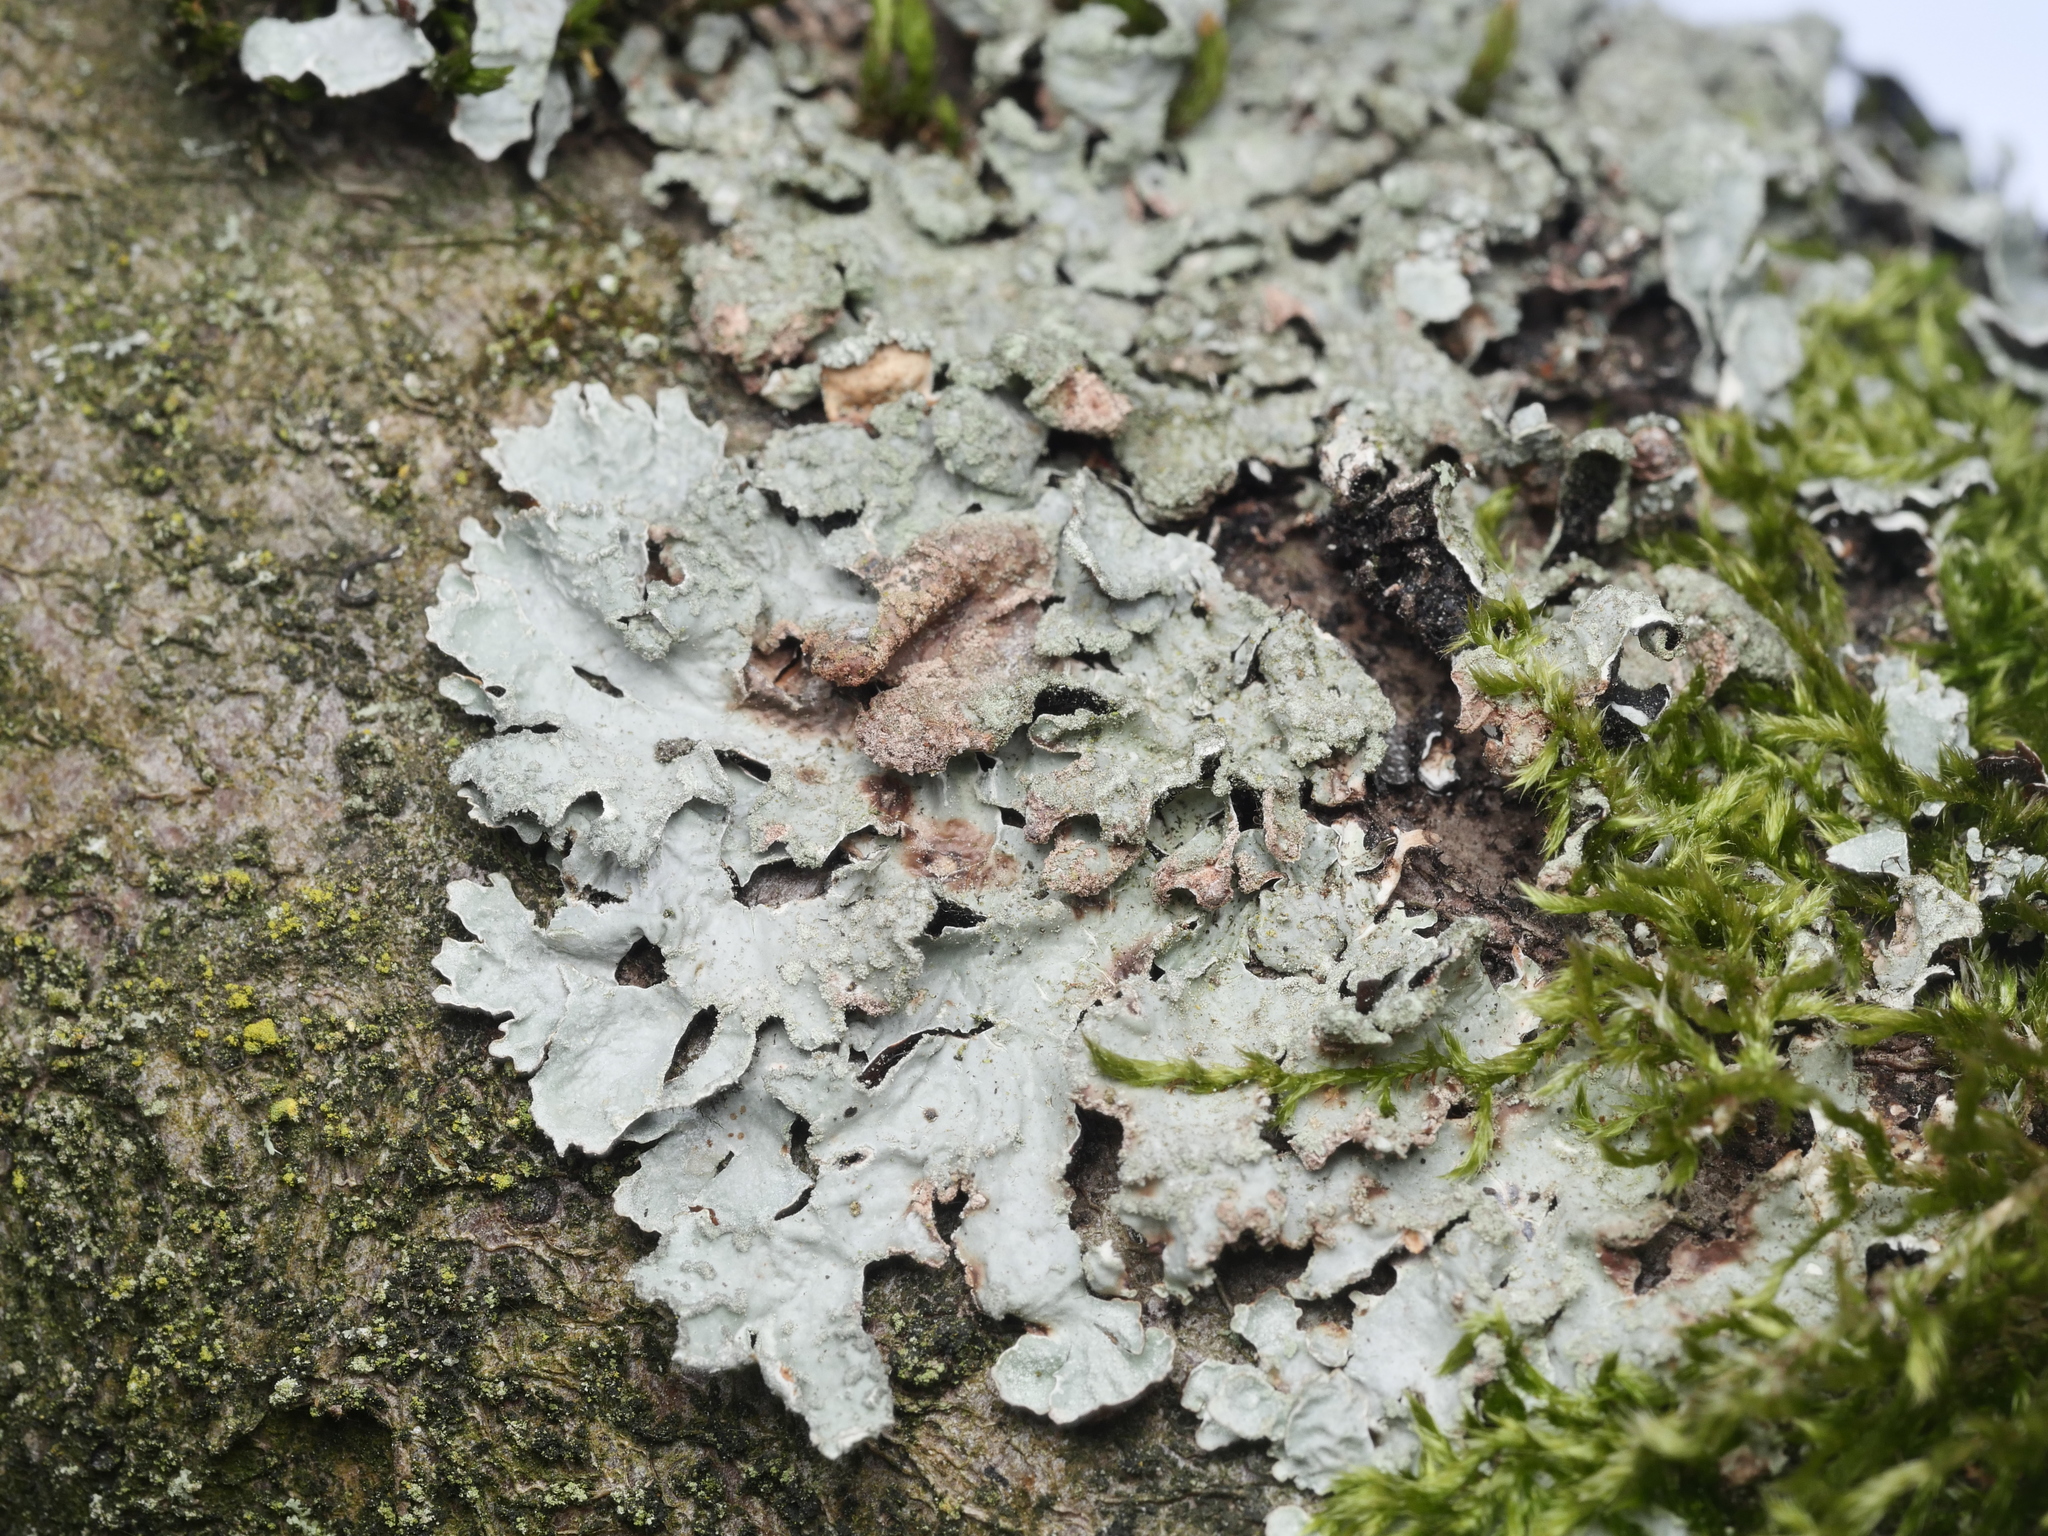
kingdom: Fungi
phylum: Ascomycota
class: Lecanoromycetes
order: Lecanorales
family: Parmeliaceae
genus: Parmelia
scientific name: Parmelia sulcata
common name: Netted shield lichen
